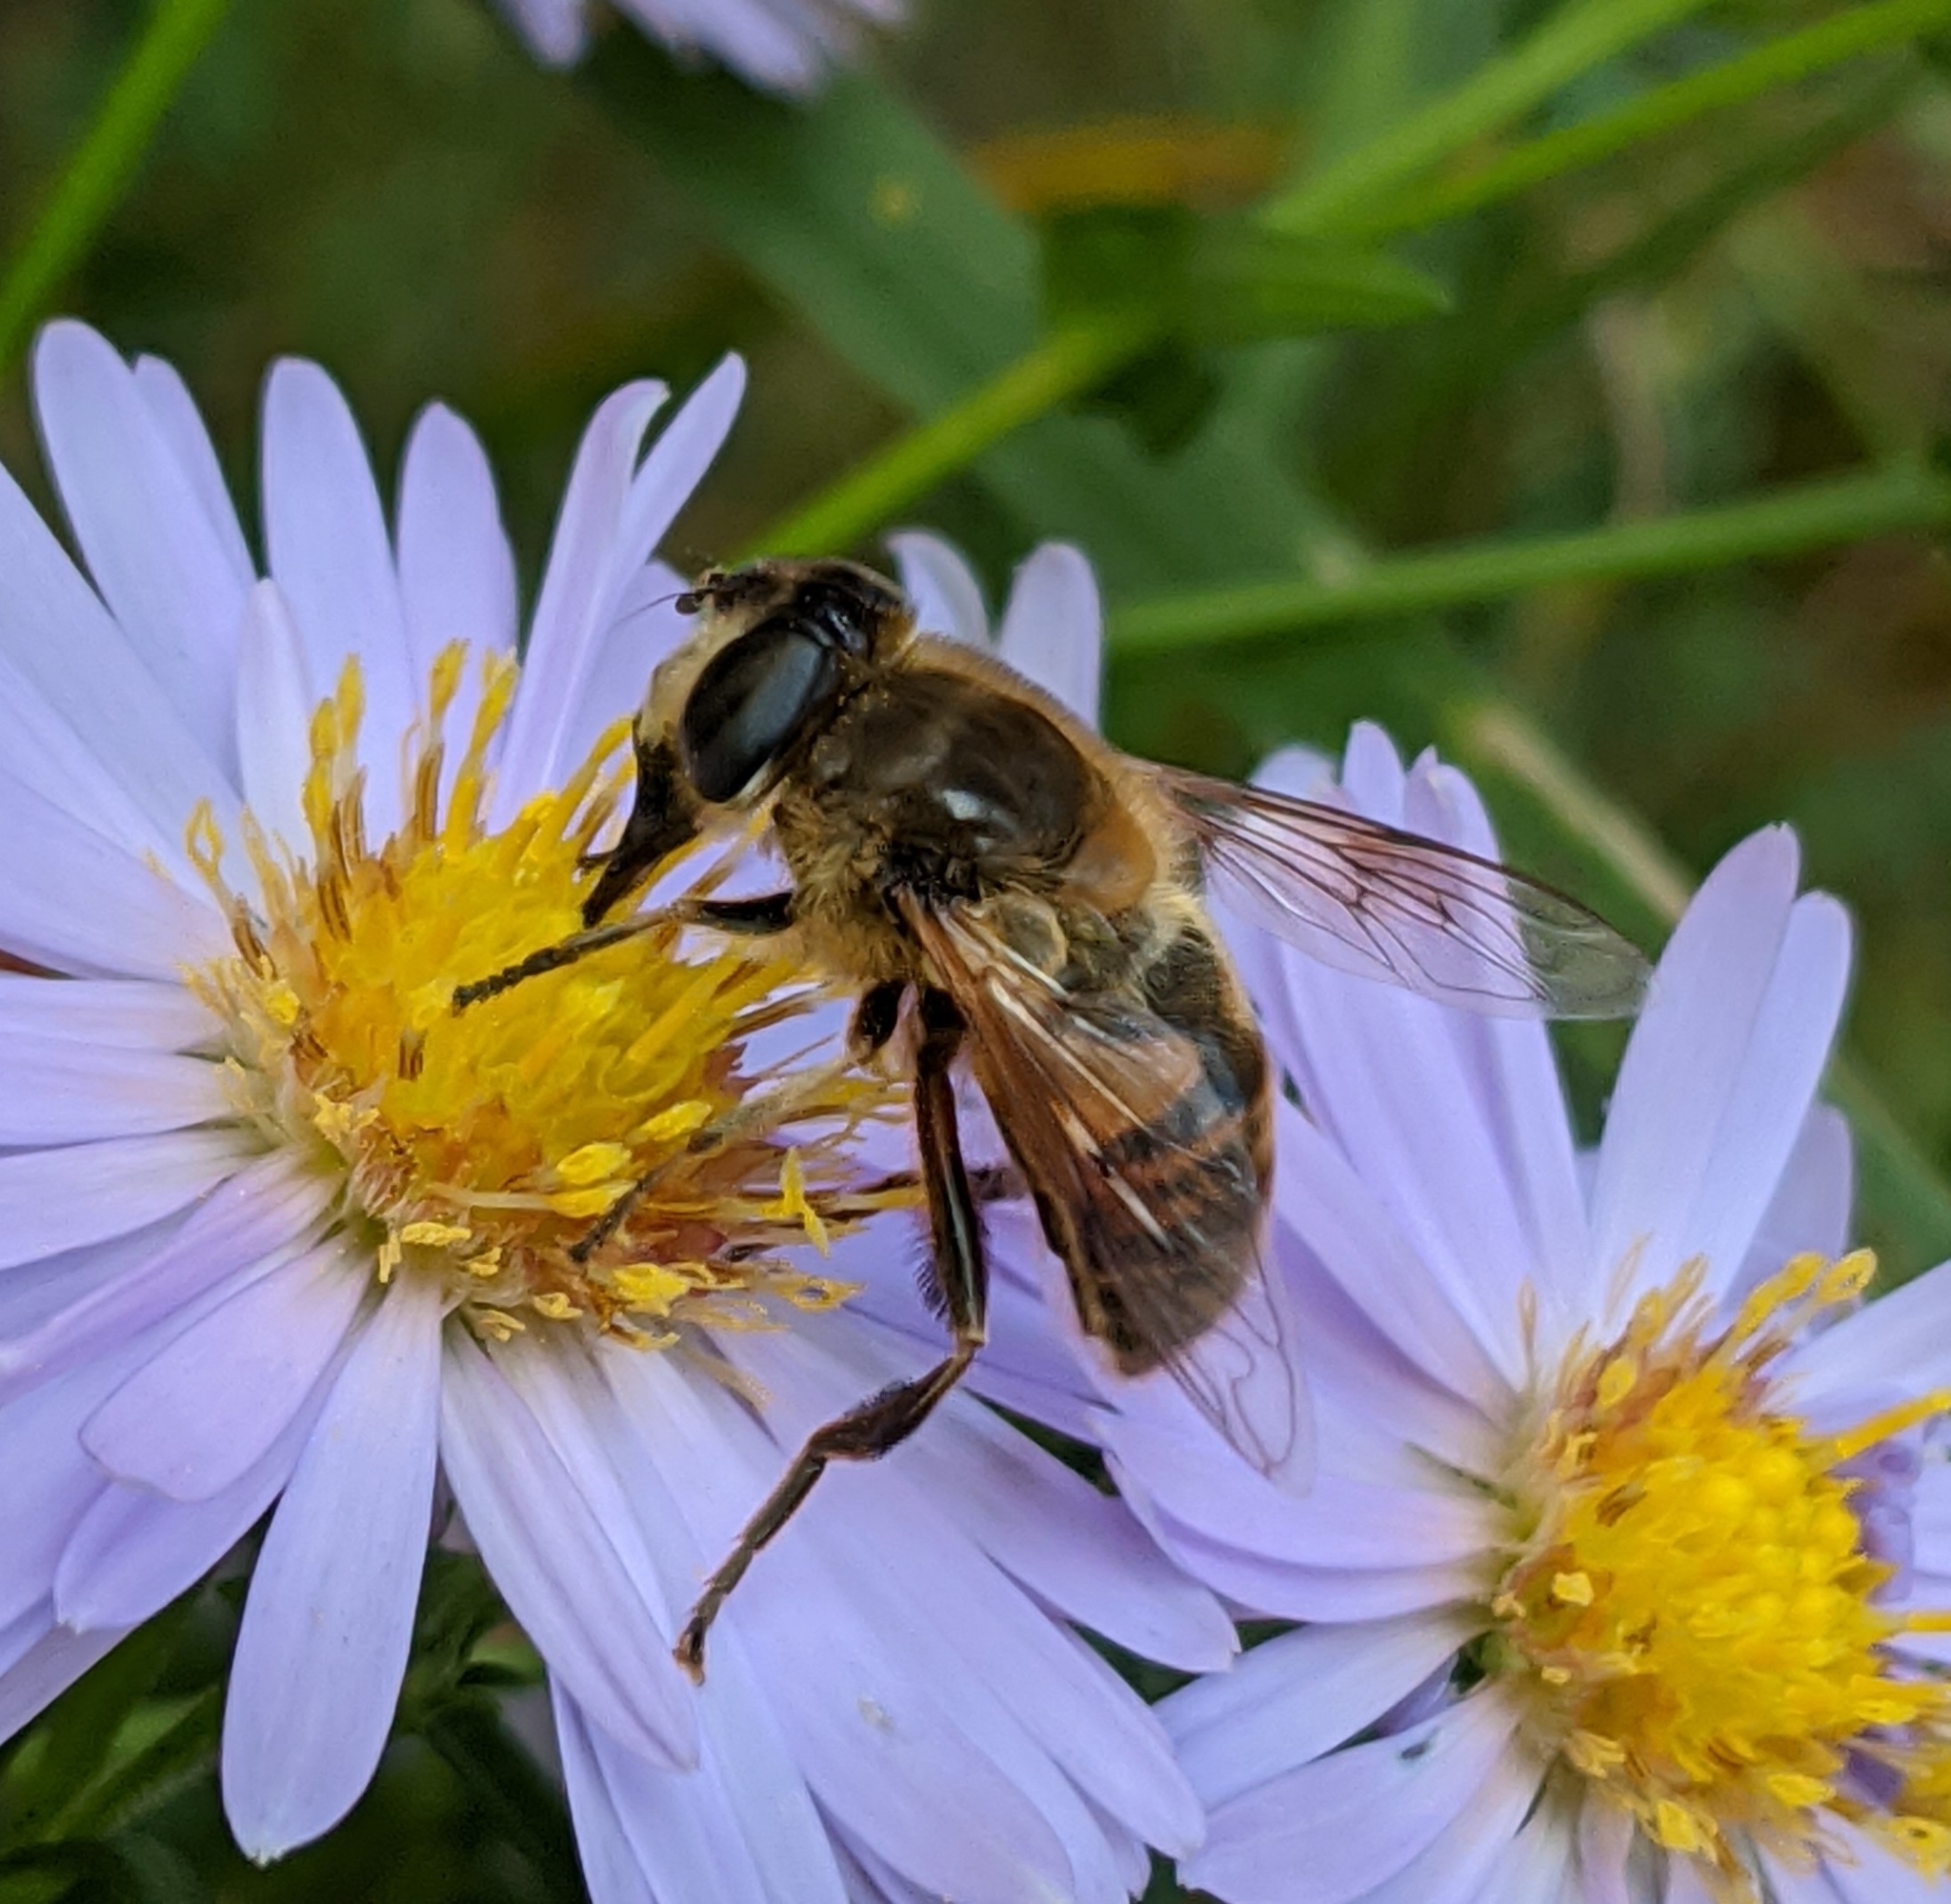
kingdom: Animalia
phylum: Arthropoda
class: Insecta
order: Diptera
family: Syrphidae
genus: Eristalis
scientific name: Eristalis tenax
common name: Drone fly
